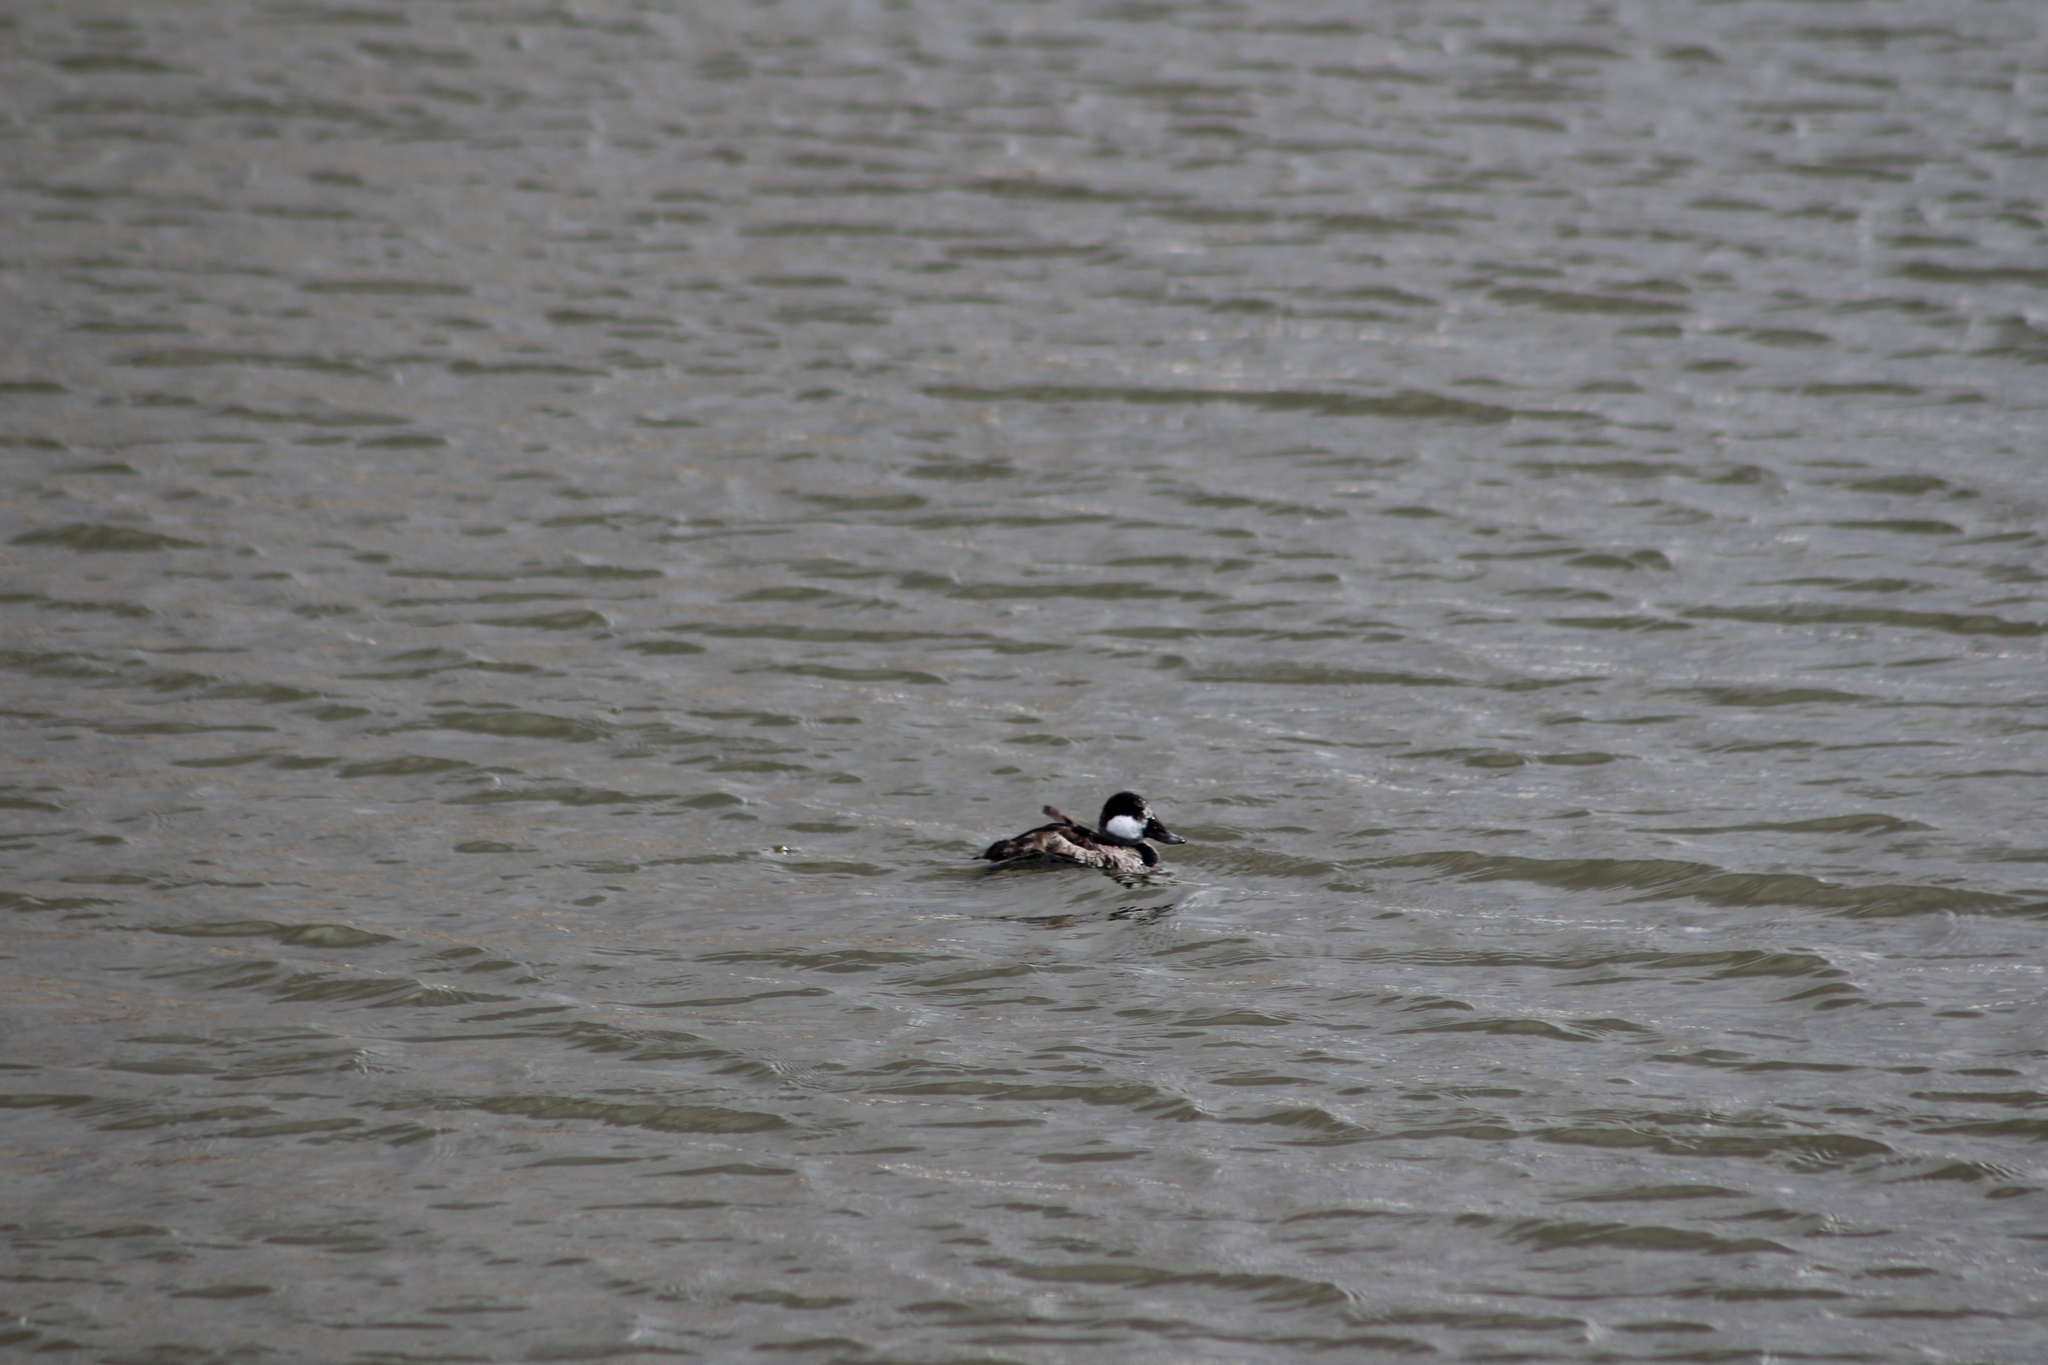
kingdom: Animalia
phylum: Chordata
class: Aves
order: Anseriformes
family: Anatidae
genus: Oxyura
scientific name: Oxyura jamaicensis
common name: Ruddy duck
